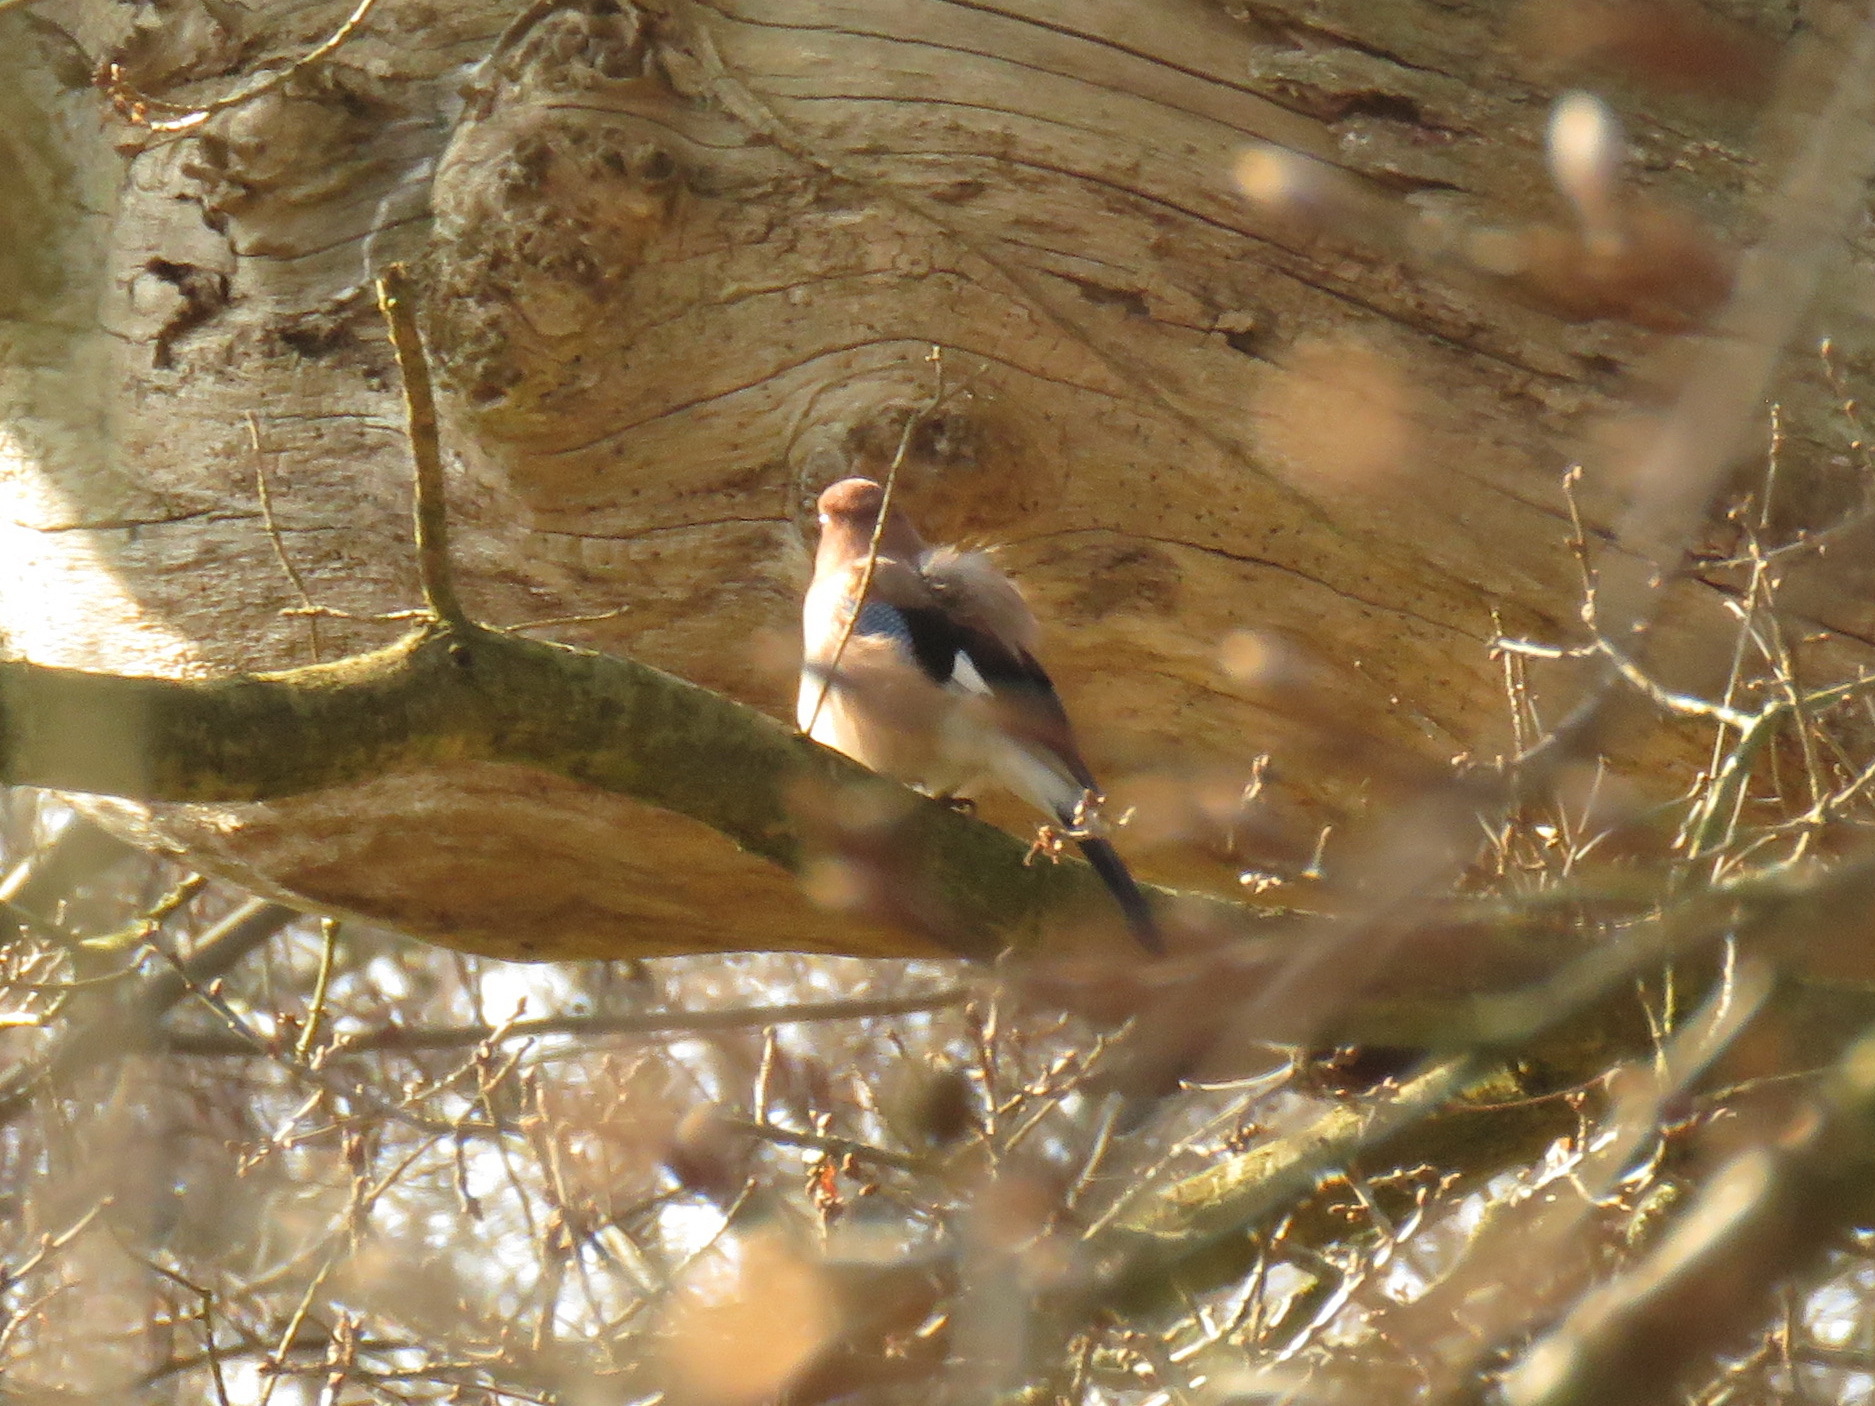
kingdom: Animalia
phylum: Chordata
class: Aves
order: Passeriformes
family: Corvidae
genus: Garrulus
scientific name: Garrulus glandarius
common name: Eurasian jay
